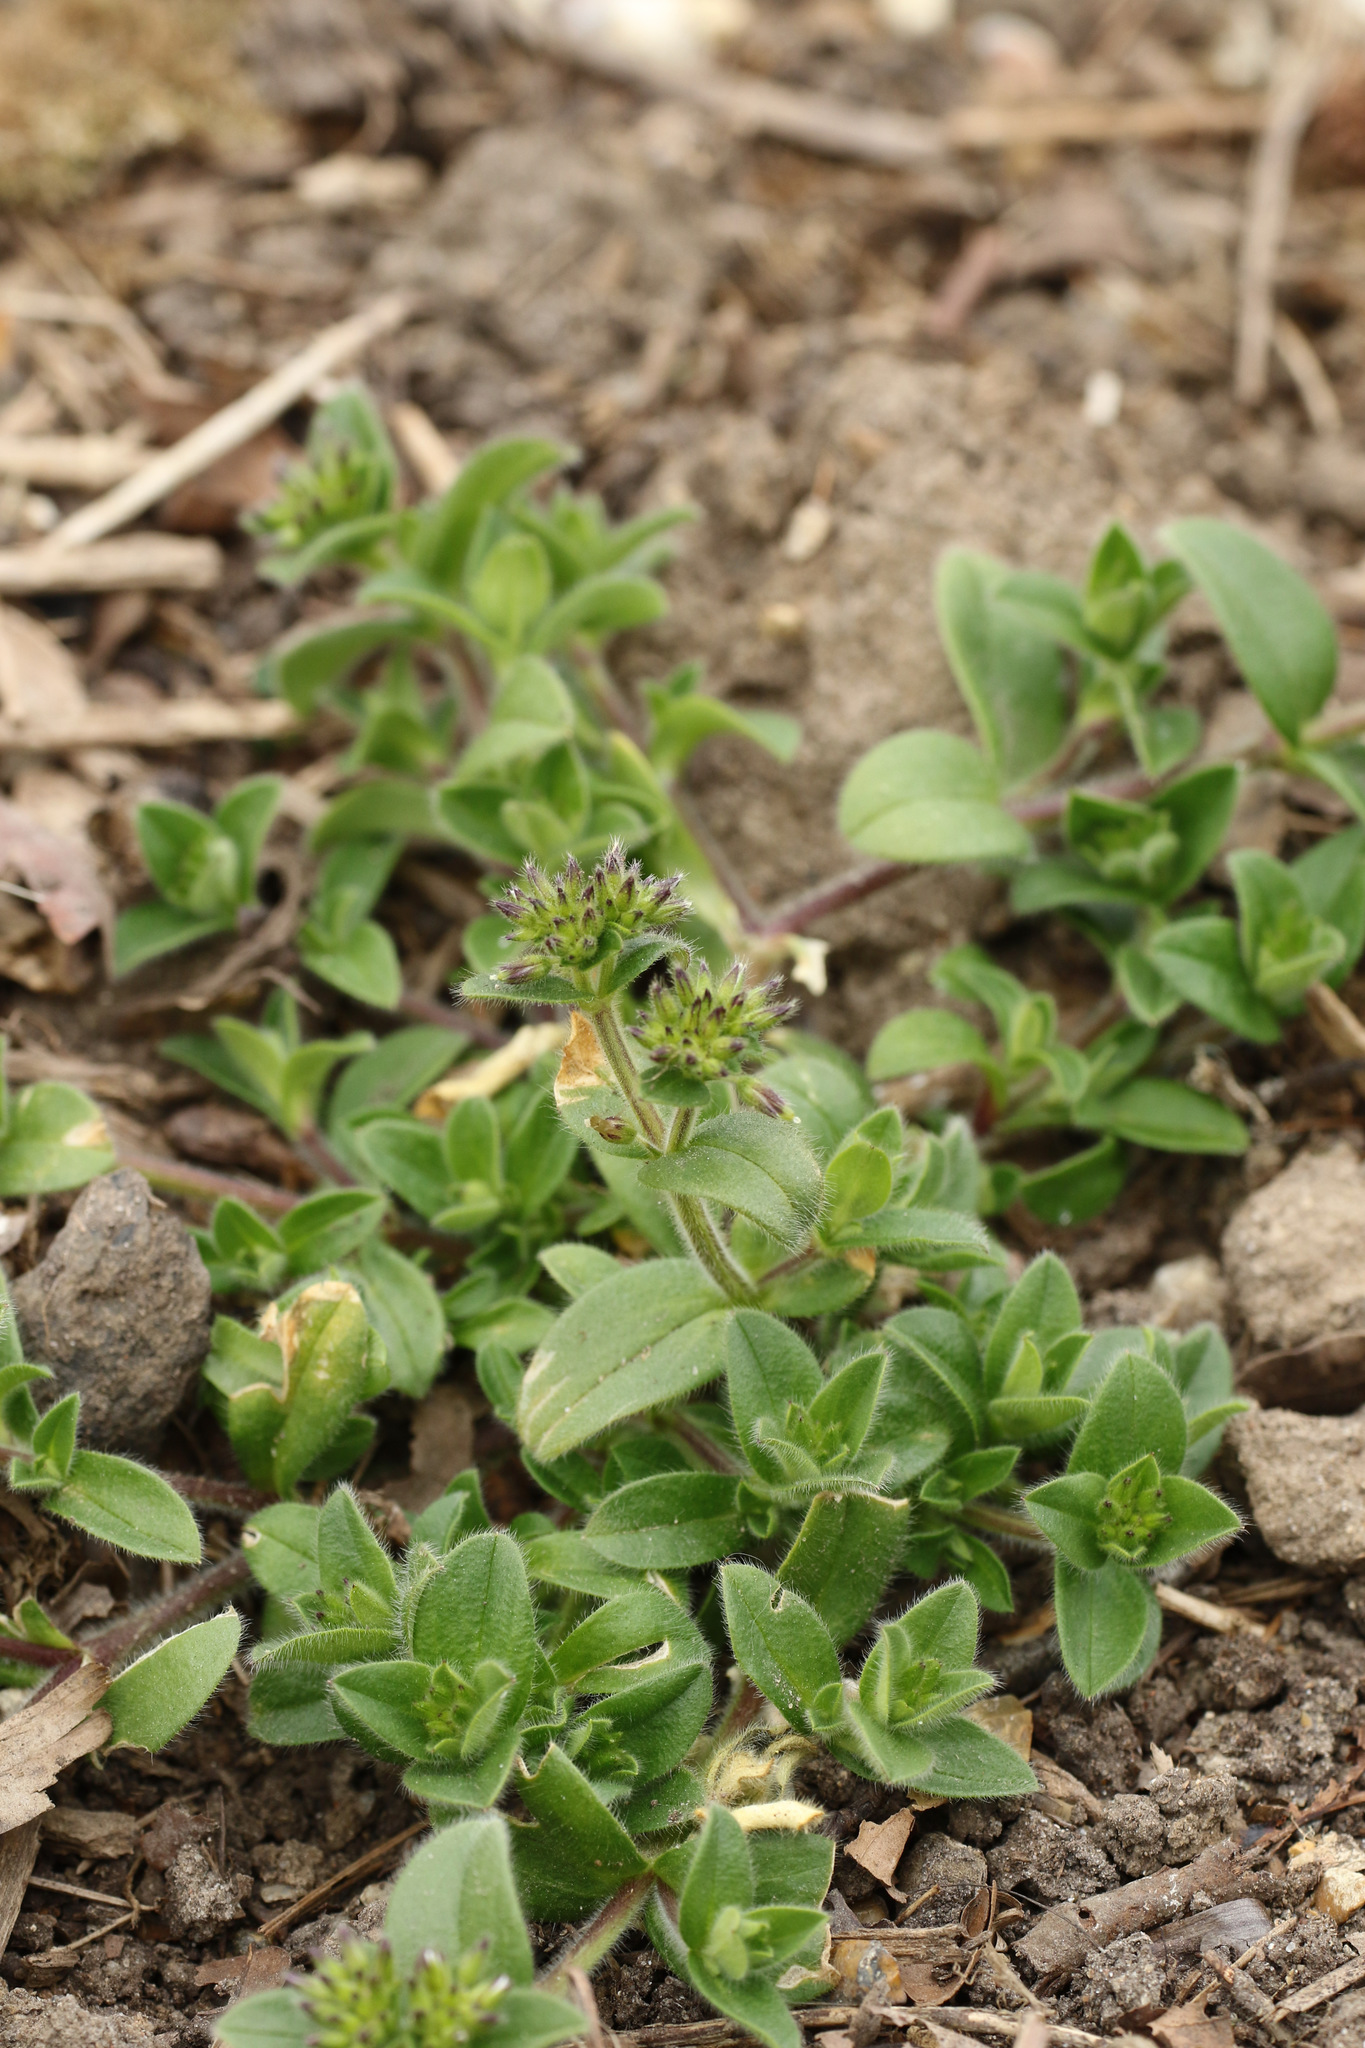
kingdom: Plantae
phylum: Tracheophyta
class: Magnoliopsida
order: Caryophyllales
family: Caryophyllaceae
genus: Cerastium
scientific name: Cerastium glomeratum
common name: Sticky chickweed
